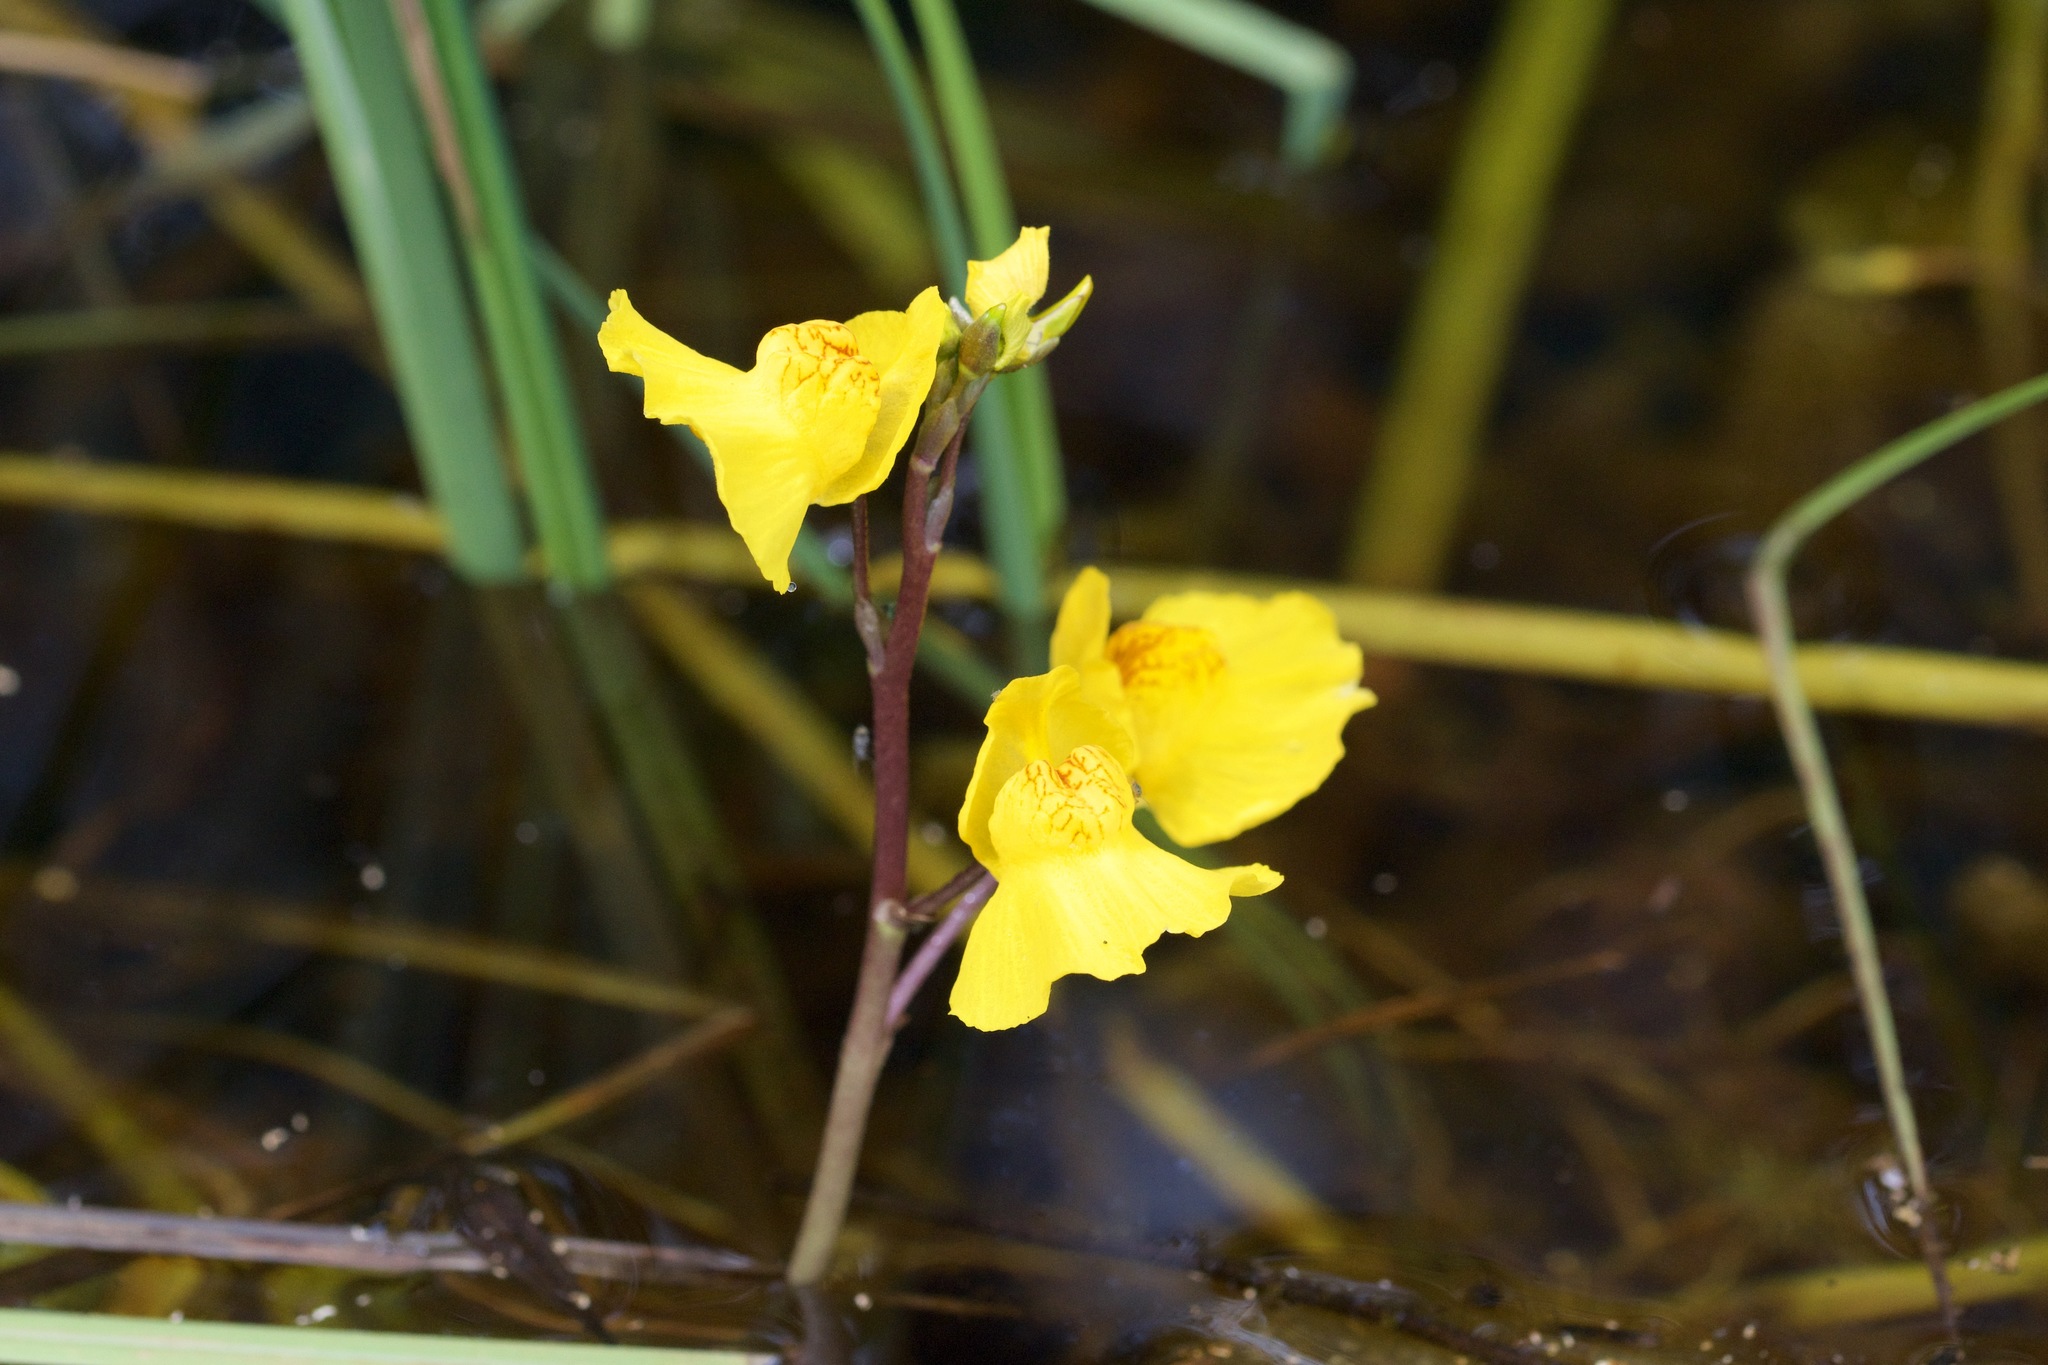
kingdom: Plantae
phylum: Tracheophyta
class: Magnoliopsida
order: Lamiales
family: Lentibulariaceae
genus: Utricularia
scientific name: Utricularia macrorhiza
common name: Common bladderwort
